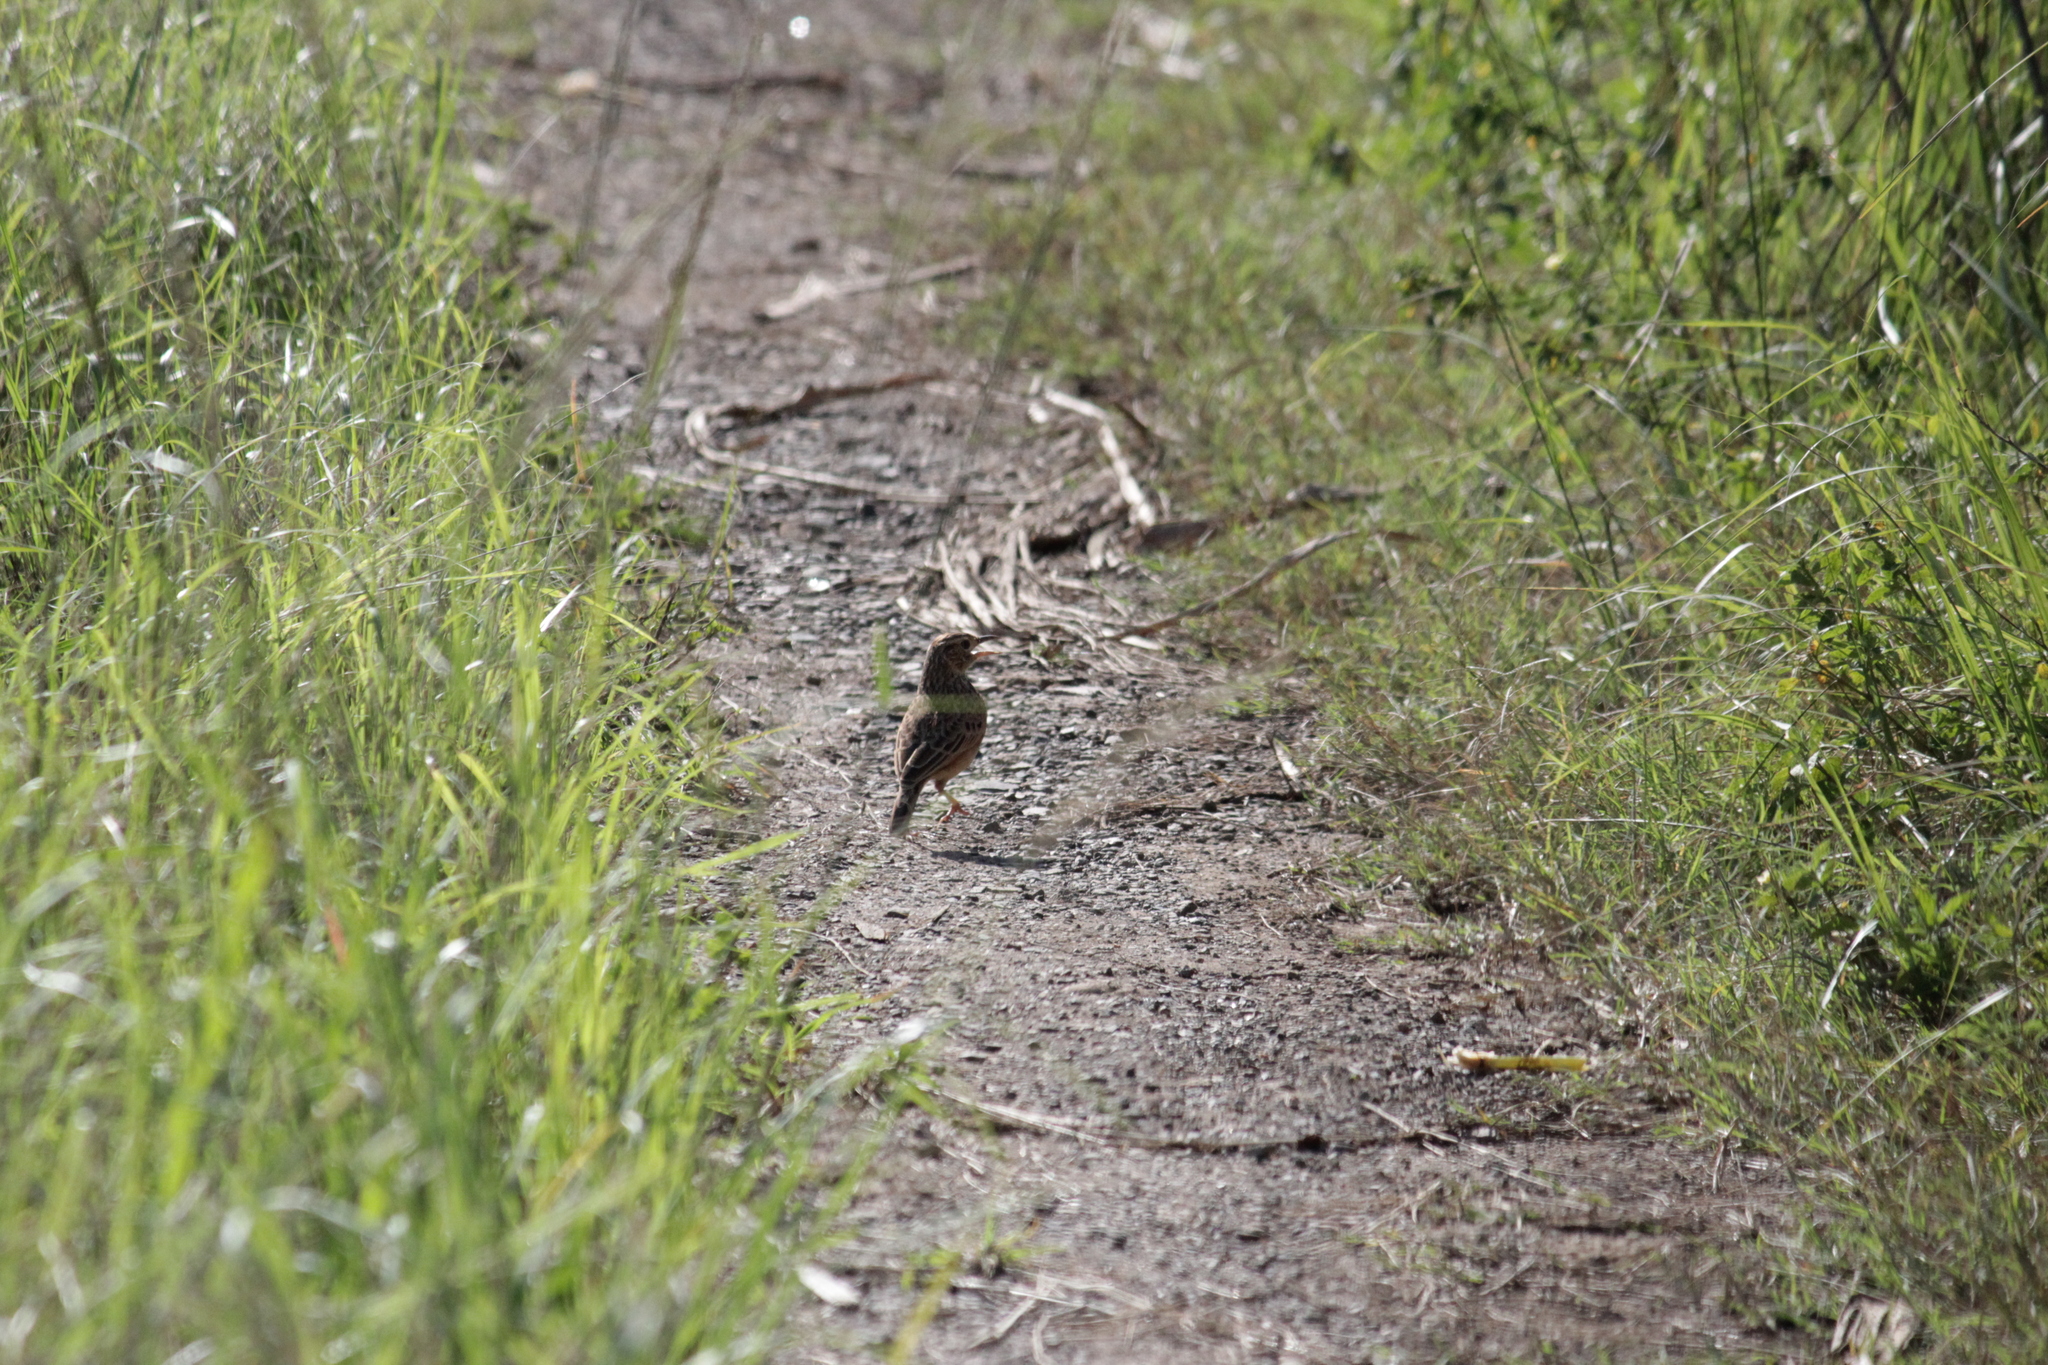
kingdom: Animalia
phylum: Chordata
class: Aves
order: Passeriformes
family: Motacillidae
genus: Anthus
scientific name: Anthus cinnamomeus
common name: African pipit
